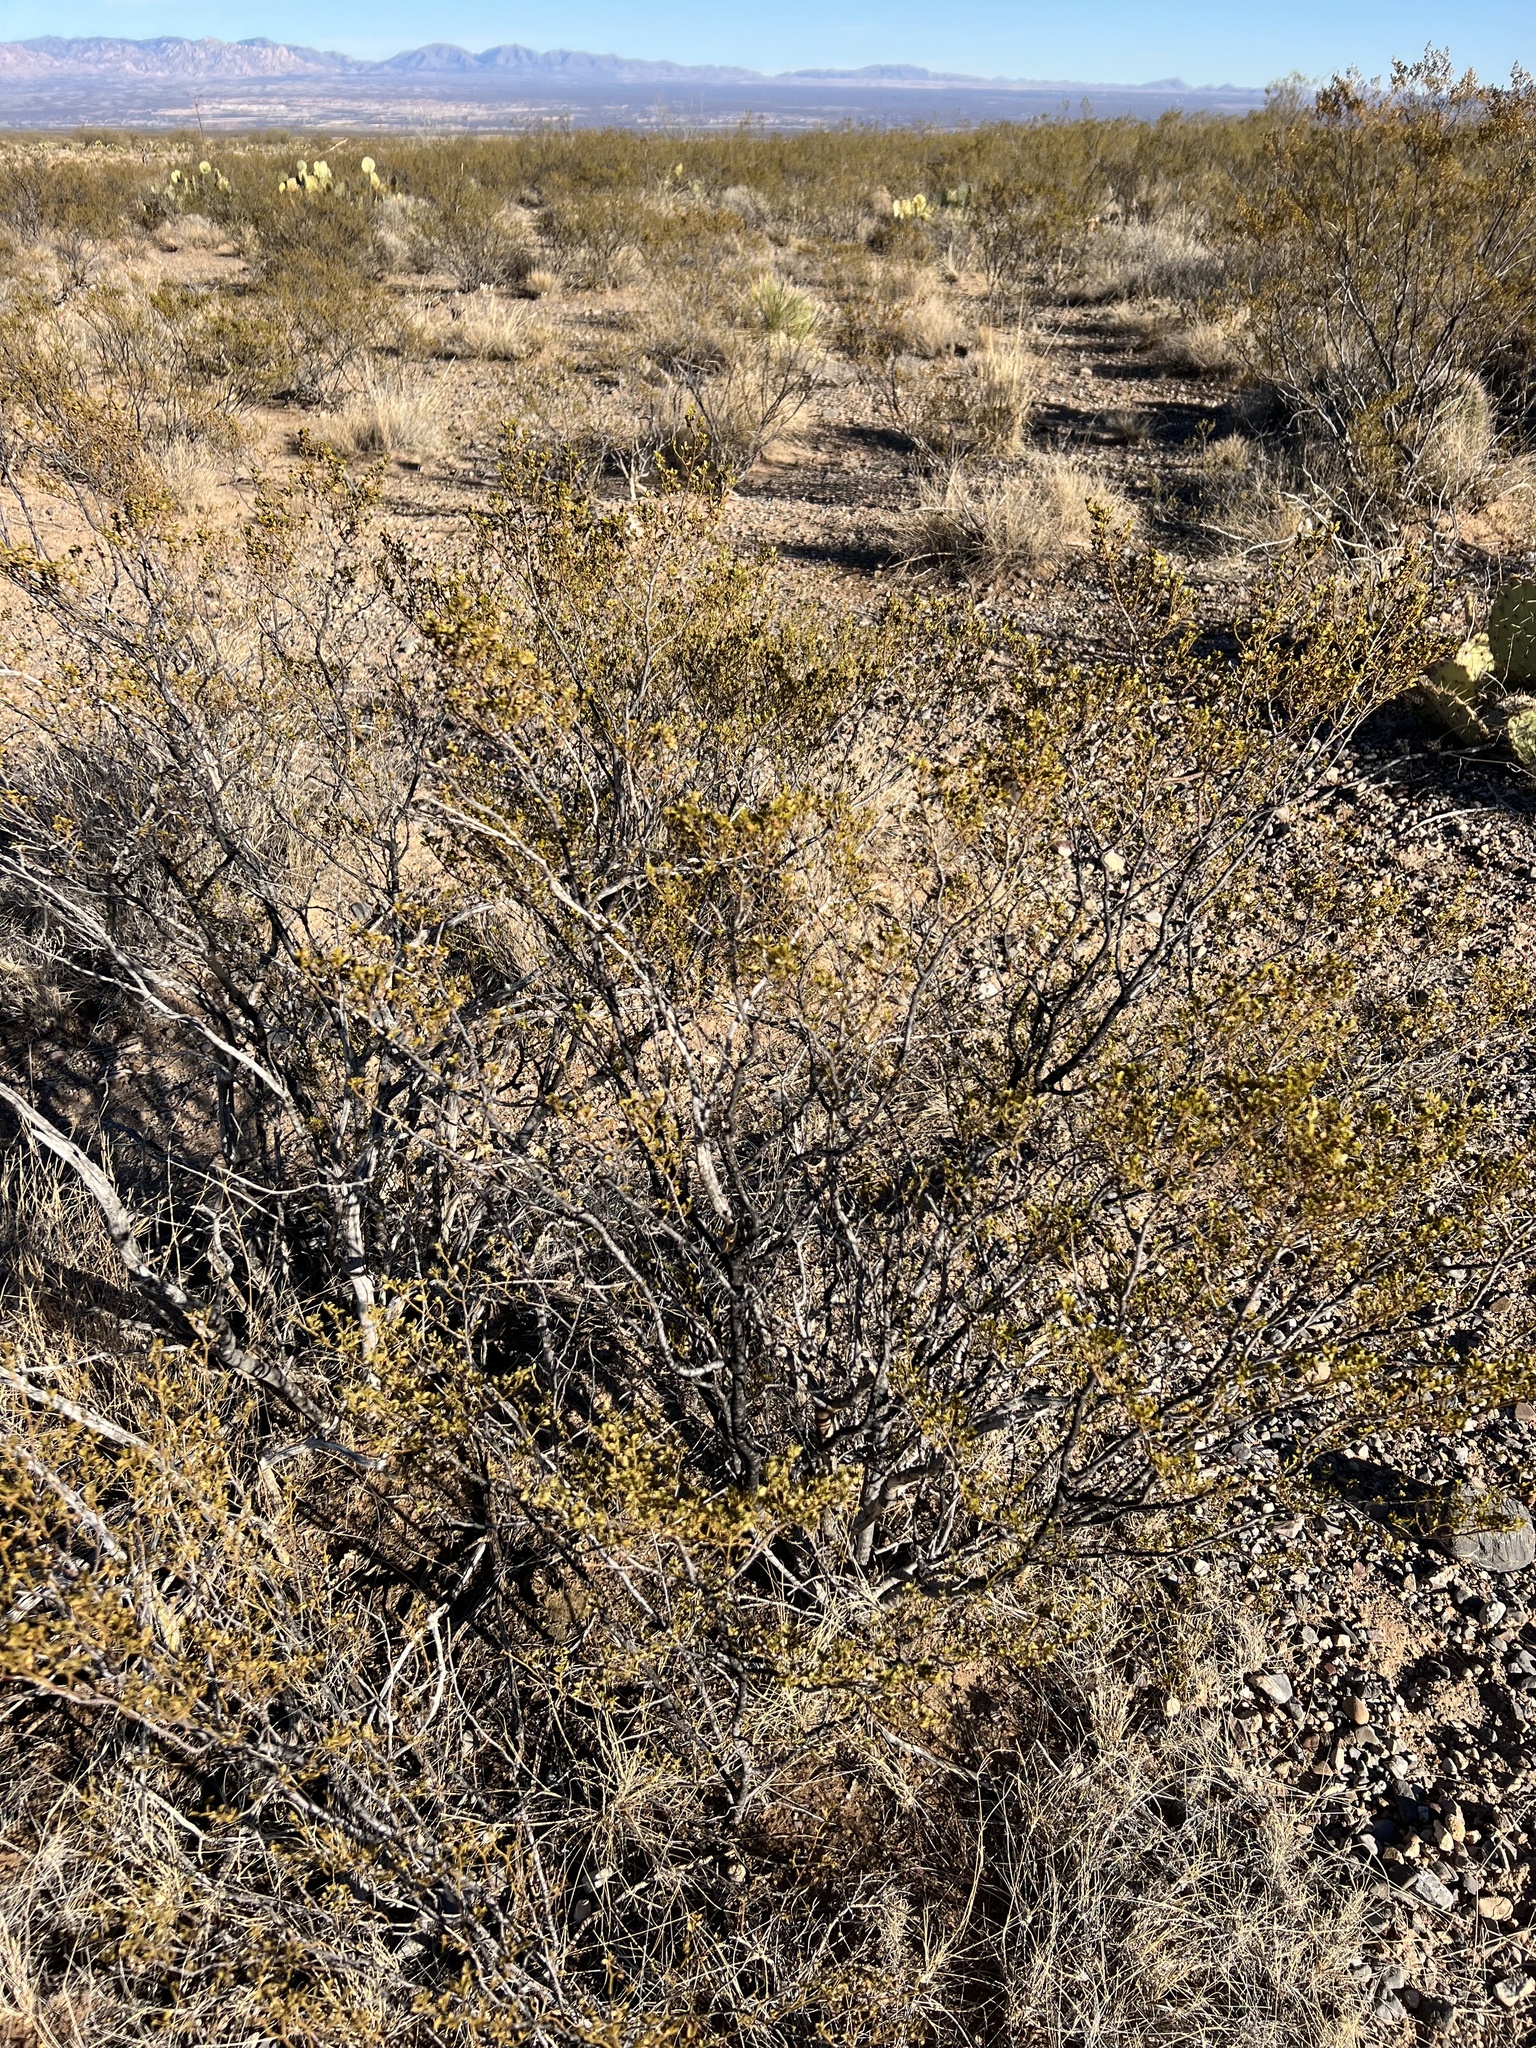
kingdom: Plantae
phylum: Tracheophyta
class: Magnoliopsida
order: Zygophyllales
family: Zygophyllaceae
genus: Larrea
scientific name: Larrea tridentata
